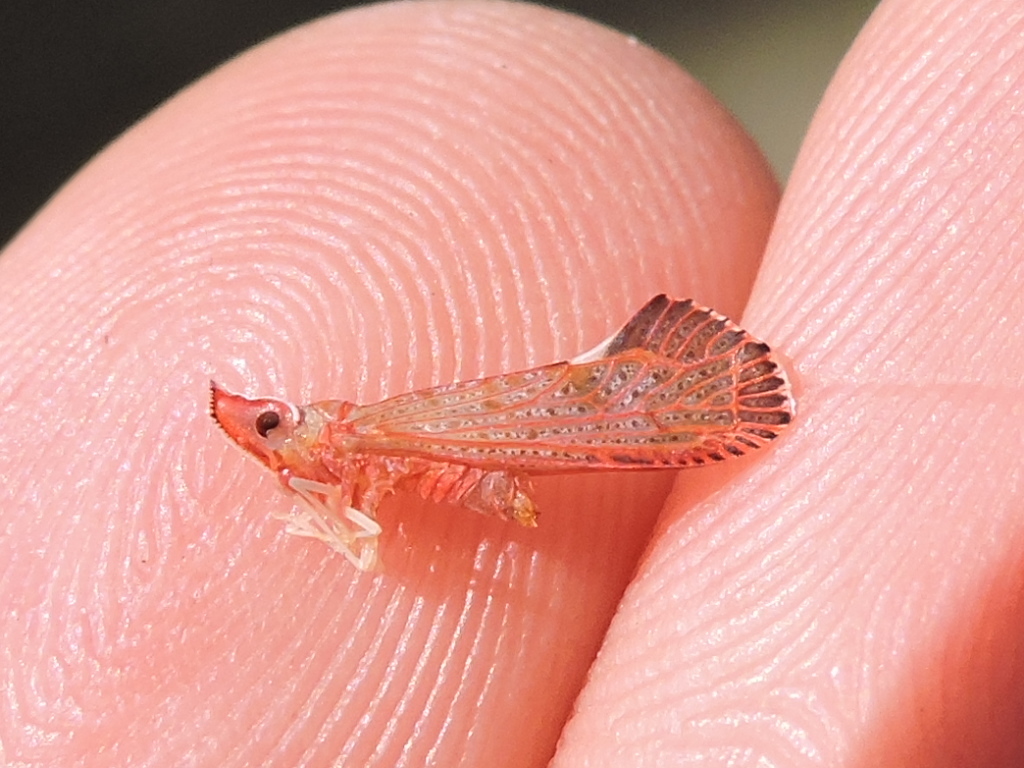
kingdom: Animalia
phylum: Arthropoda
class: Insecta
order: Hemiptera
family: Derbidae
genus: Apache
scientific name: Apache degeeri
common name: Red-fanned planthopper
